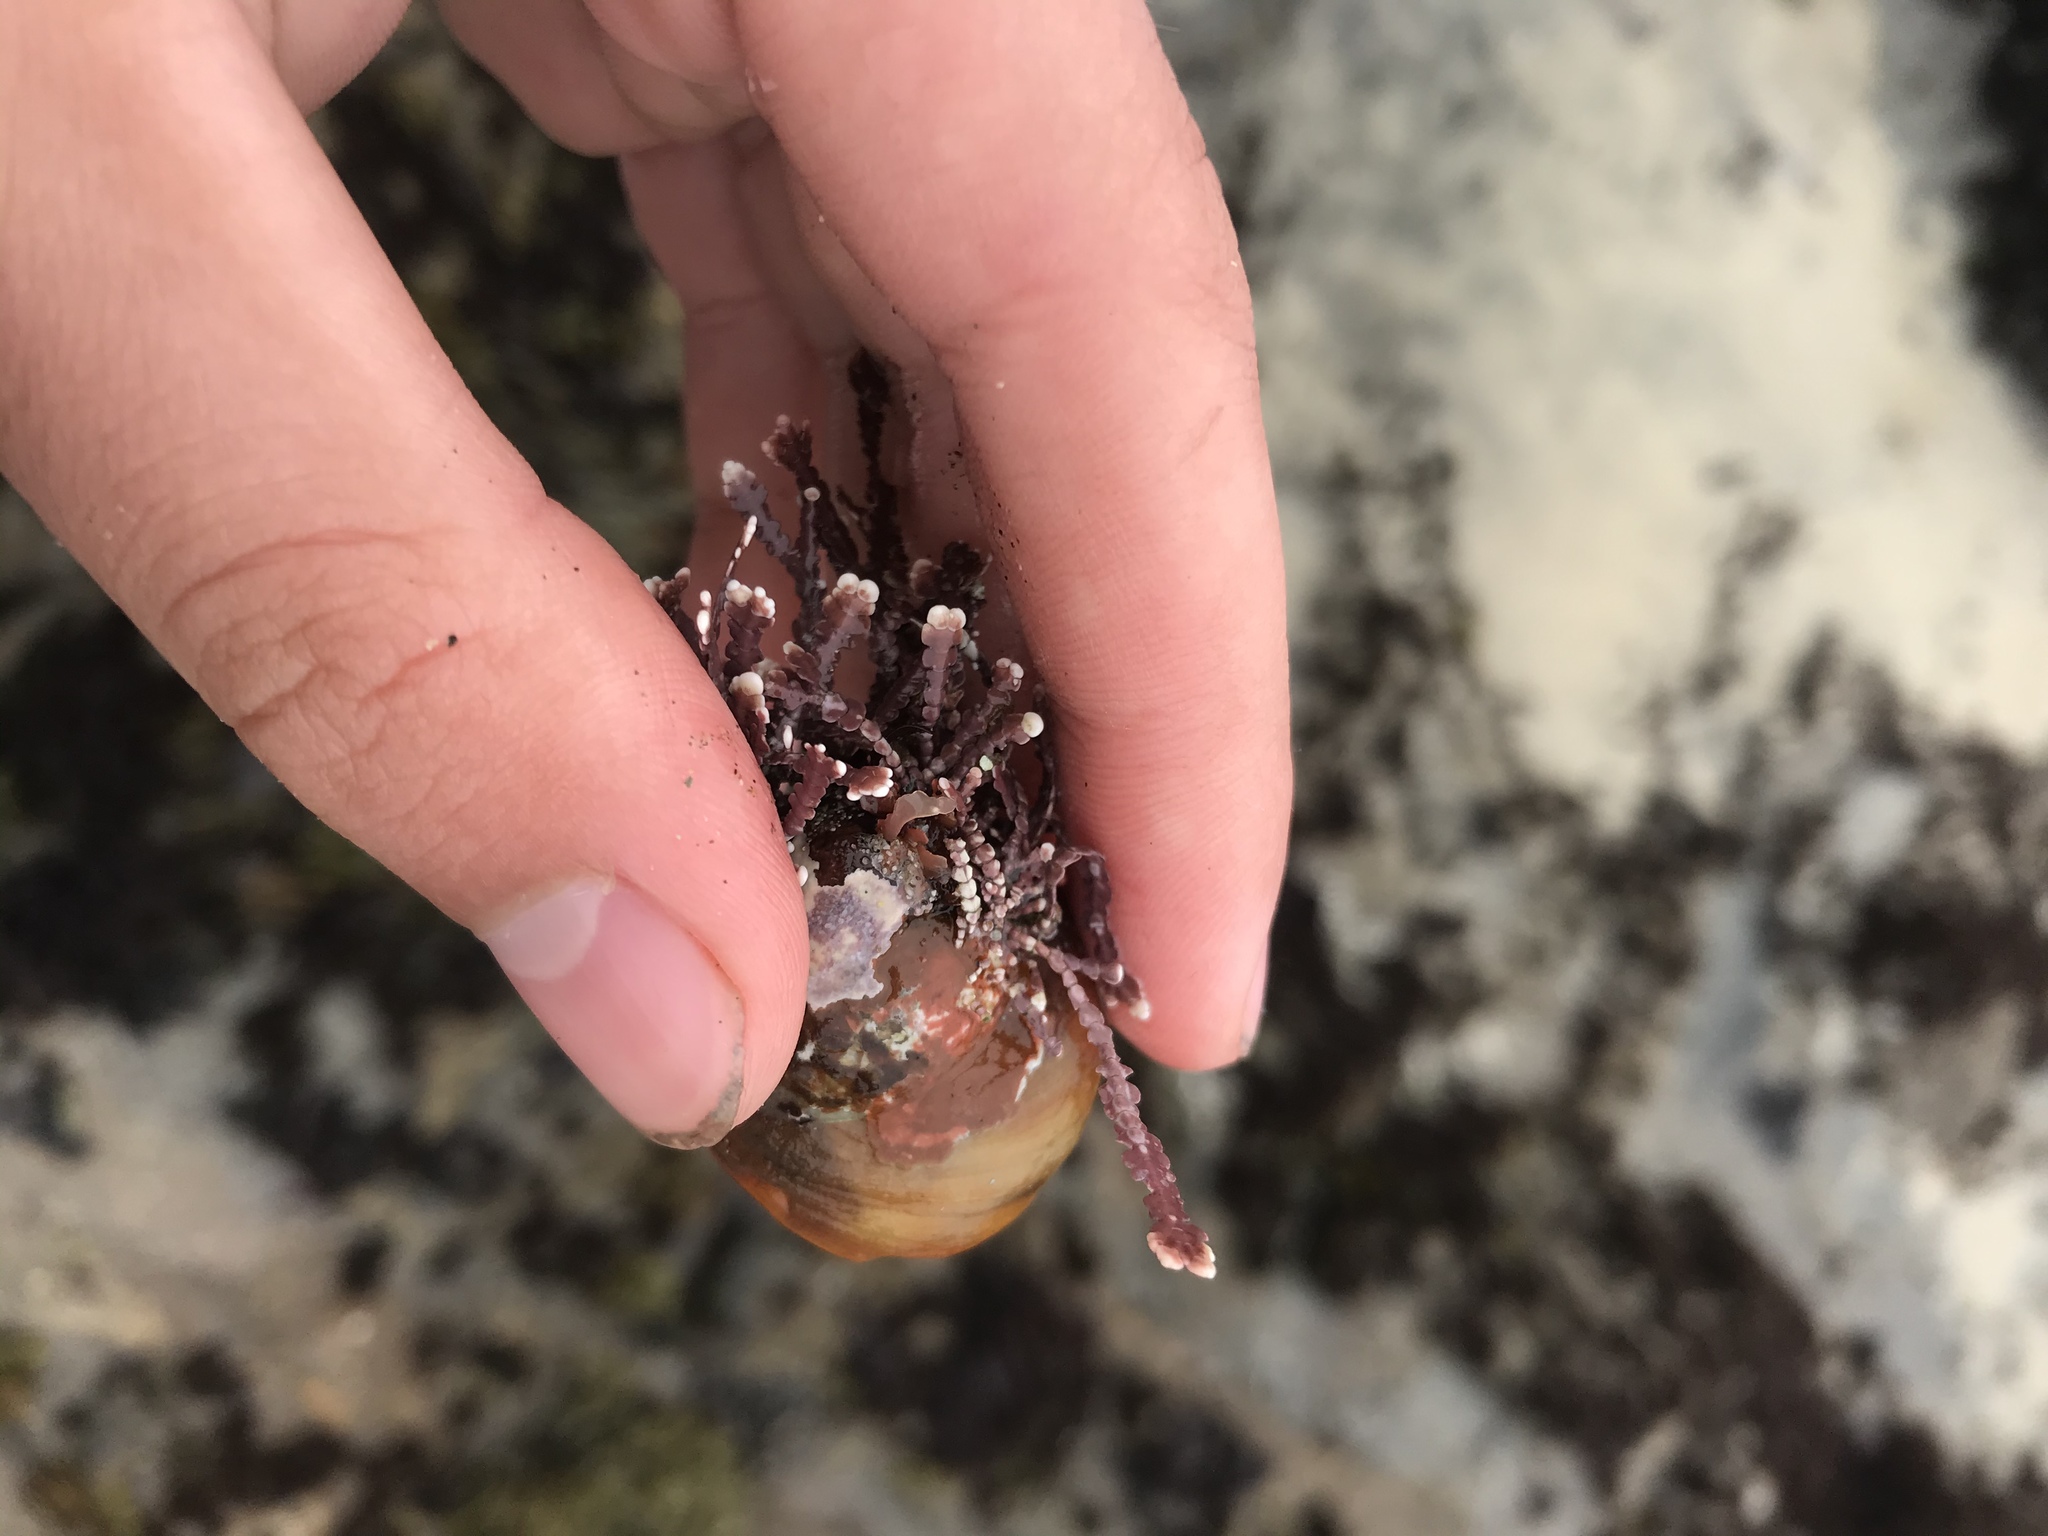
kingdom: Animalia
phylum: Mollusca
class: Gastropoda
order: Trochida
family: Tegulidae
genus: Tegula
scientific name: Tegula brunnea
